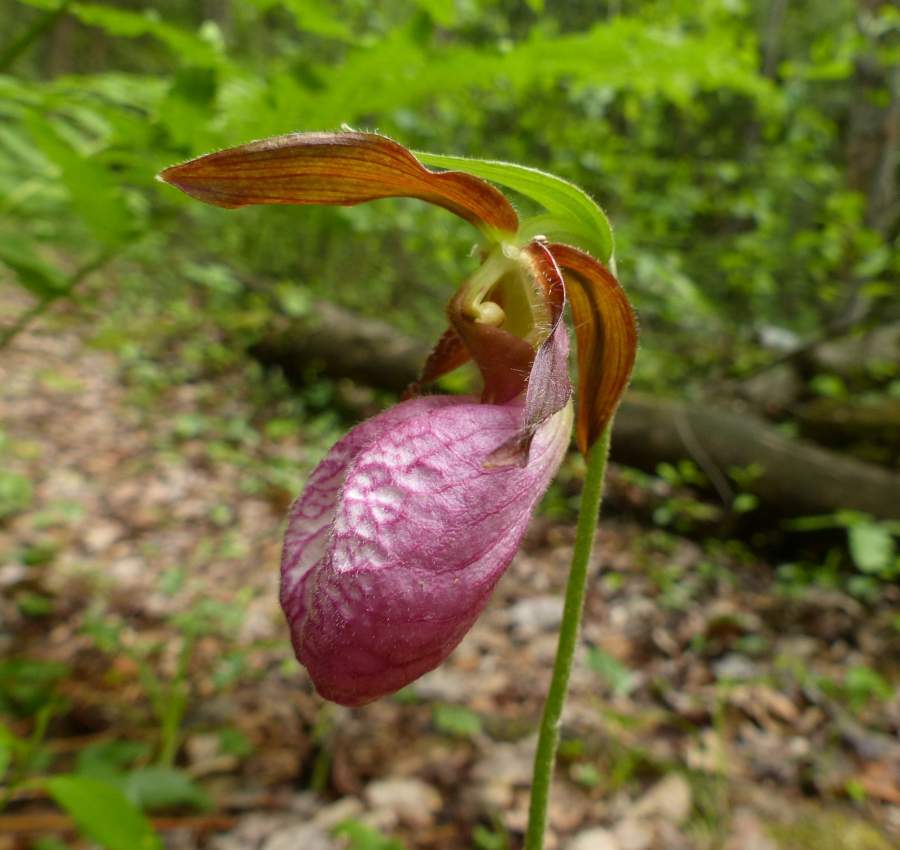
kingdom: Plantae
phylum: Tracheophyta
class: Liliopsida
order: Asparagales
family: Orchidaceae
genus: Cypripedium
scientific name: Cypripedium acaule
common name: Pink lady's-slipper
